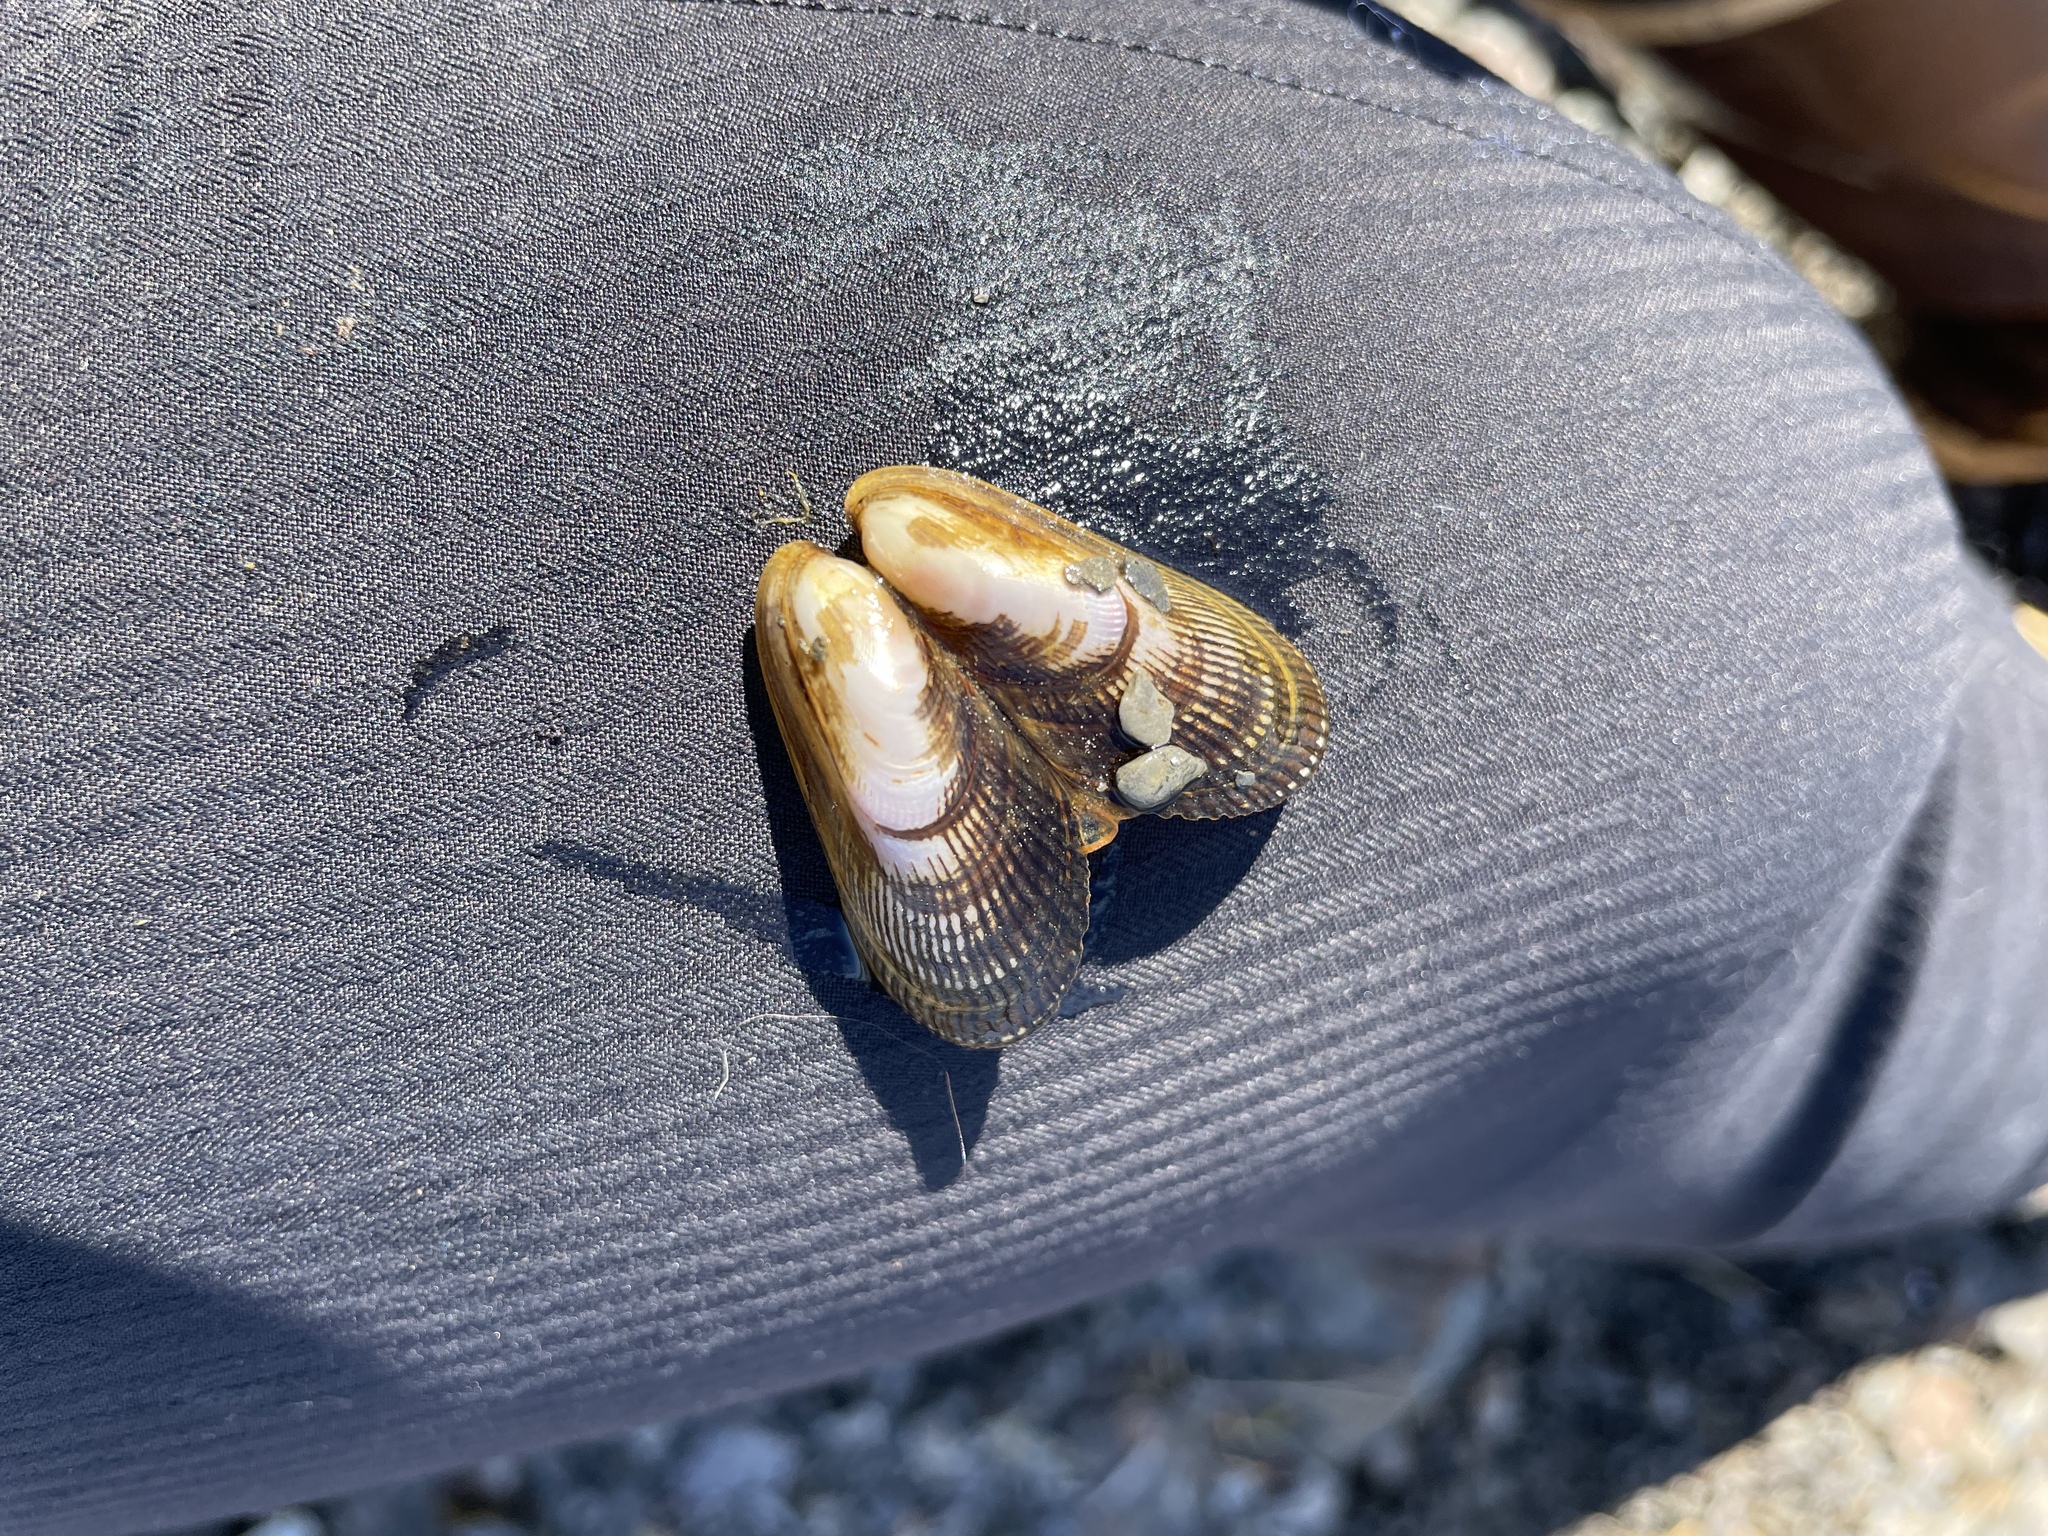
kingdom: Animalia
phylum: Mollusca
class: Bivalvia
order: Mytilida
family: Mytilidae
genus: Geukensia
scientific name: Geukensia demissa
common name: Ribbed mussel
